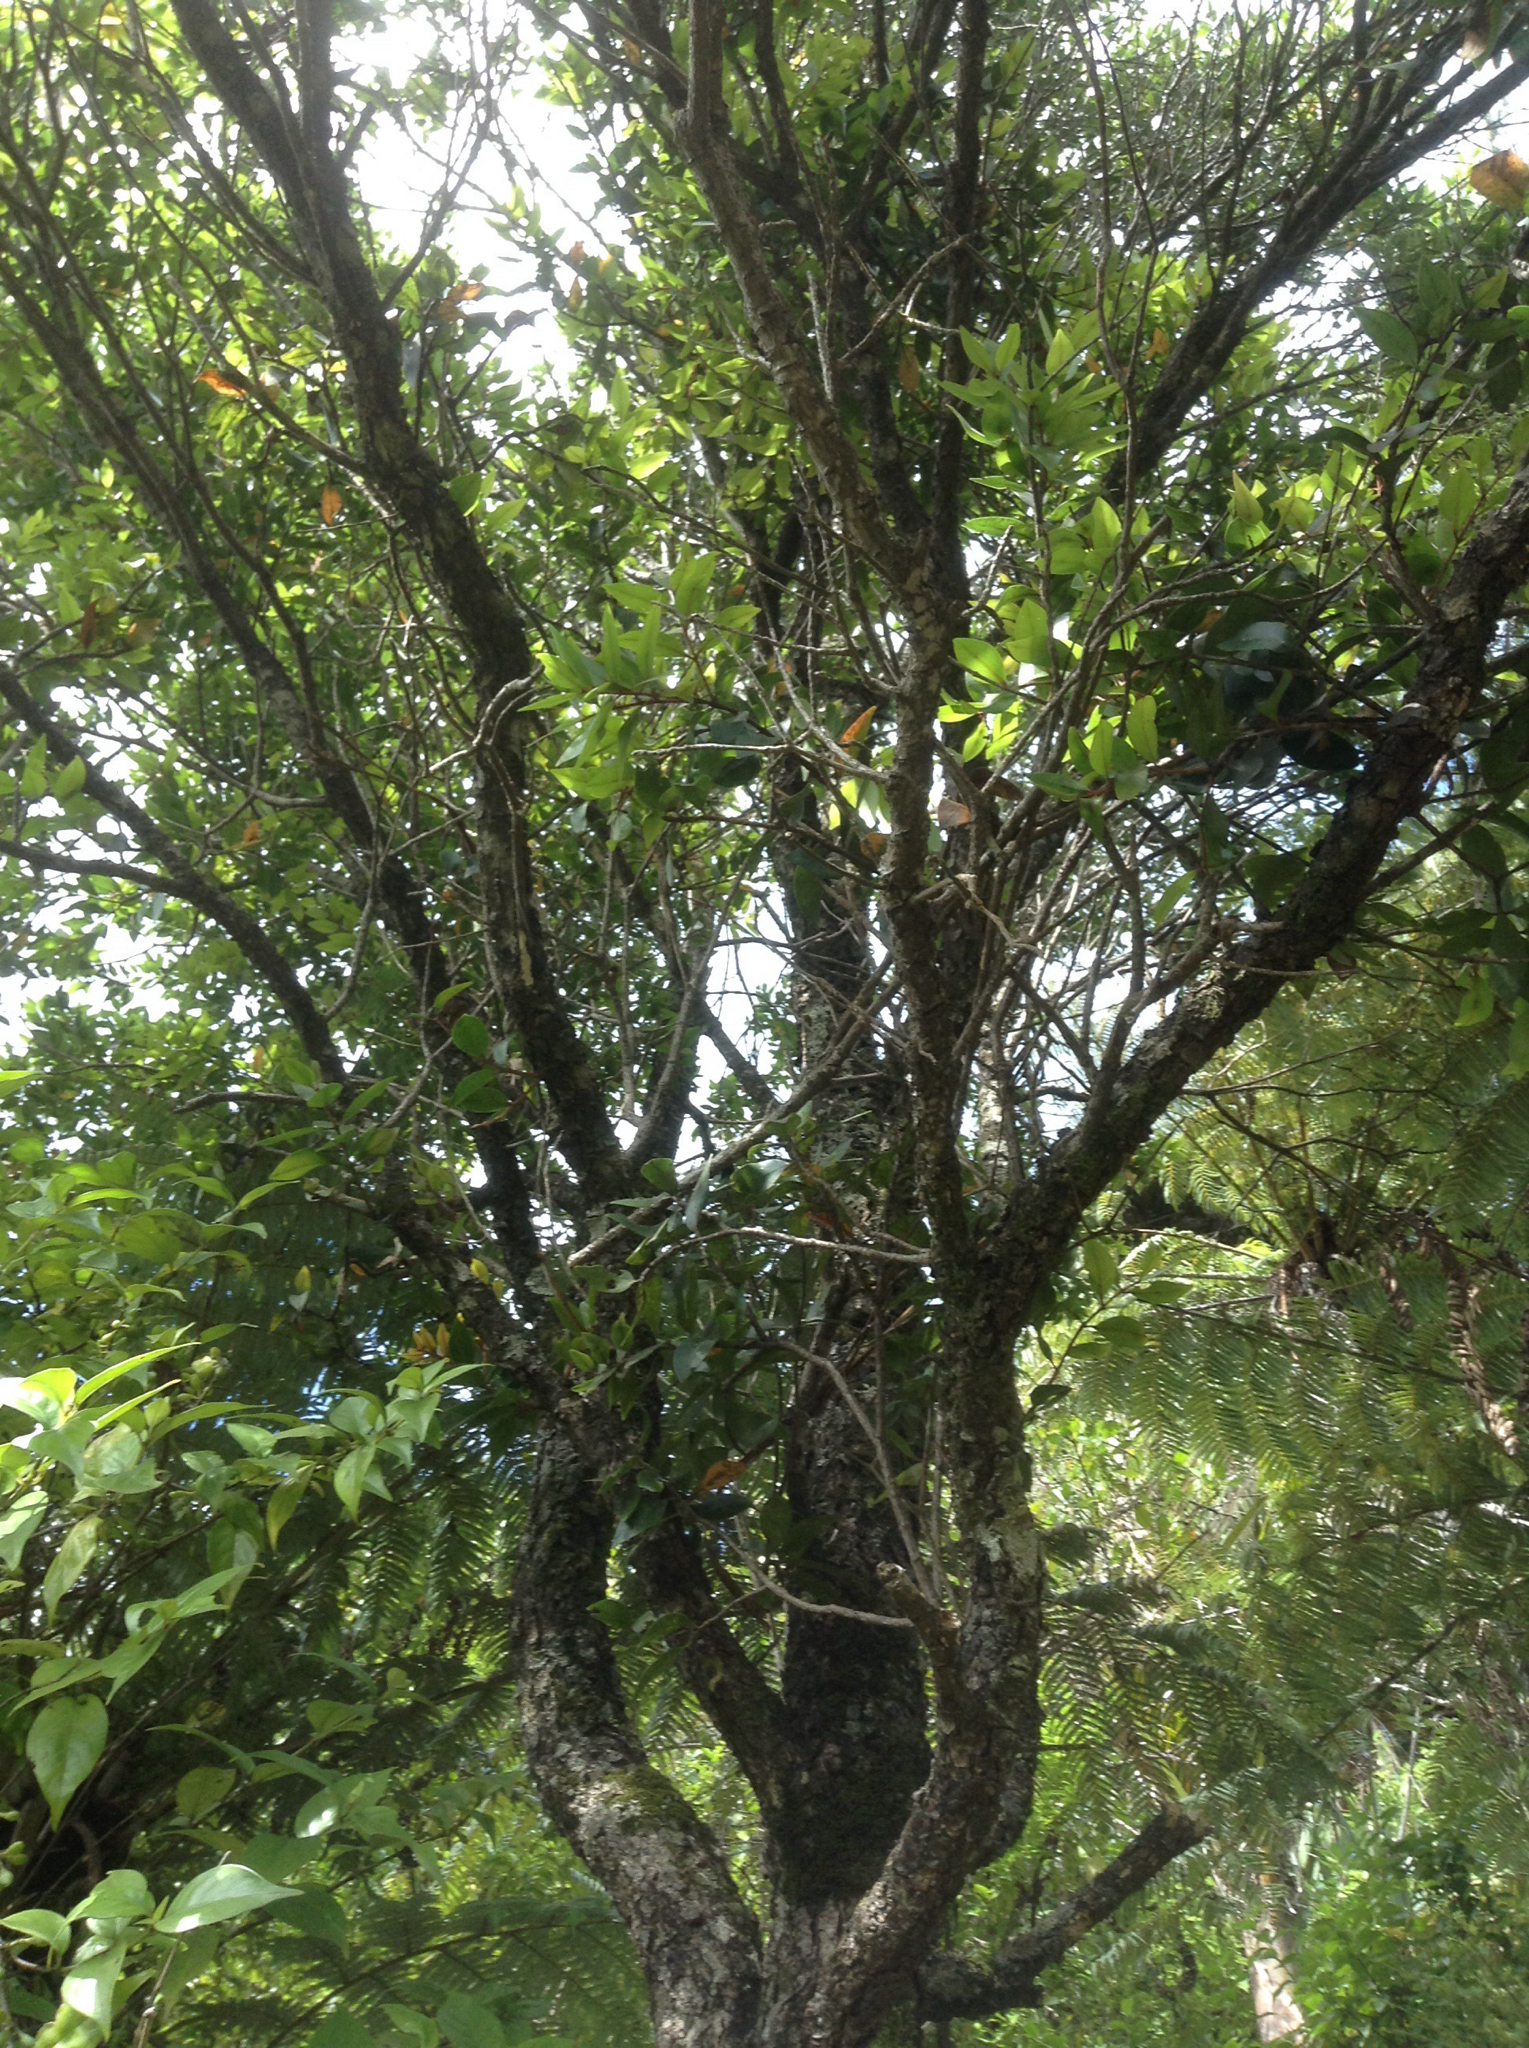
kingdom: Plantae
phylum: Tracheophyta
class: Magnoliopsida
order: Myrtales
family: Myrtaceae
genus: Metrosideros
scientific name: Metrosideros robusta
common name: Northern rata
